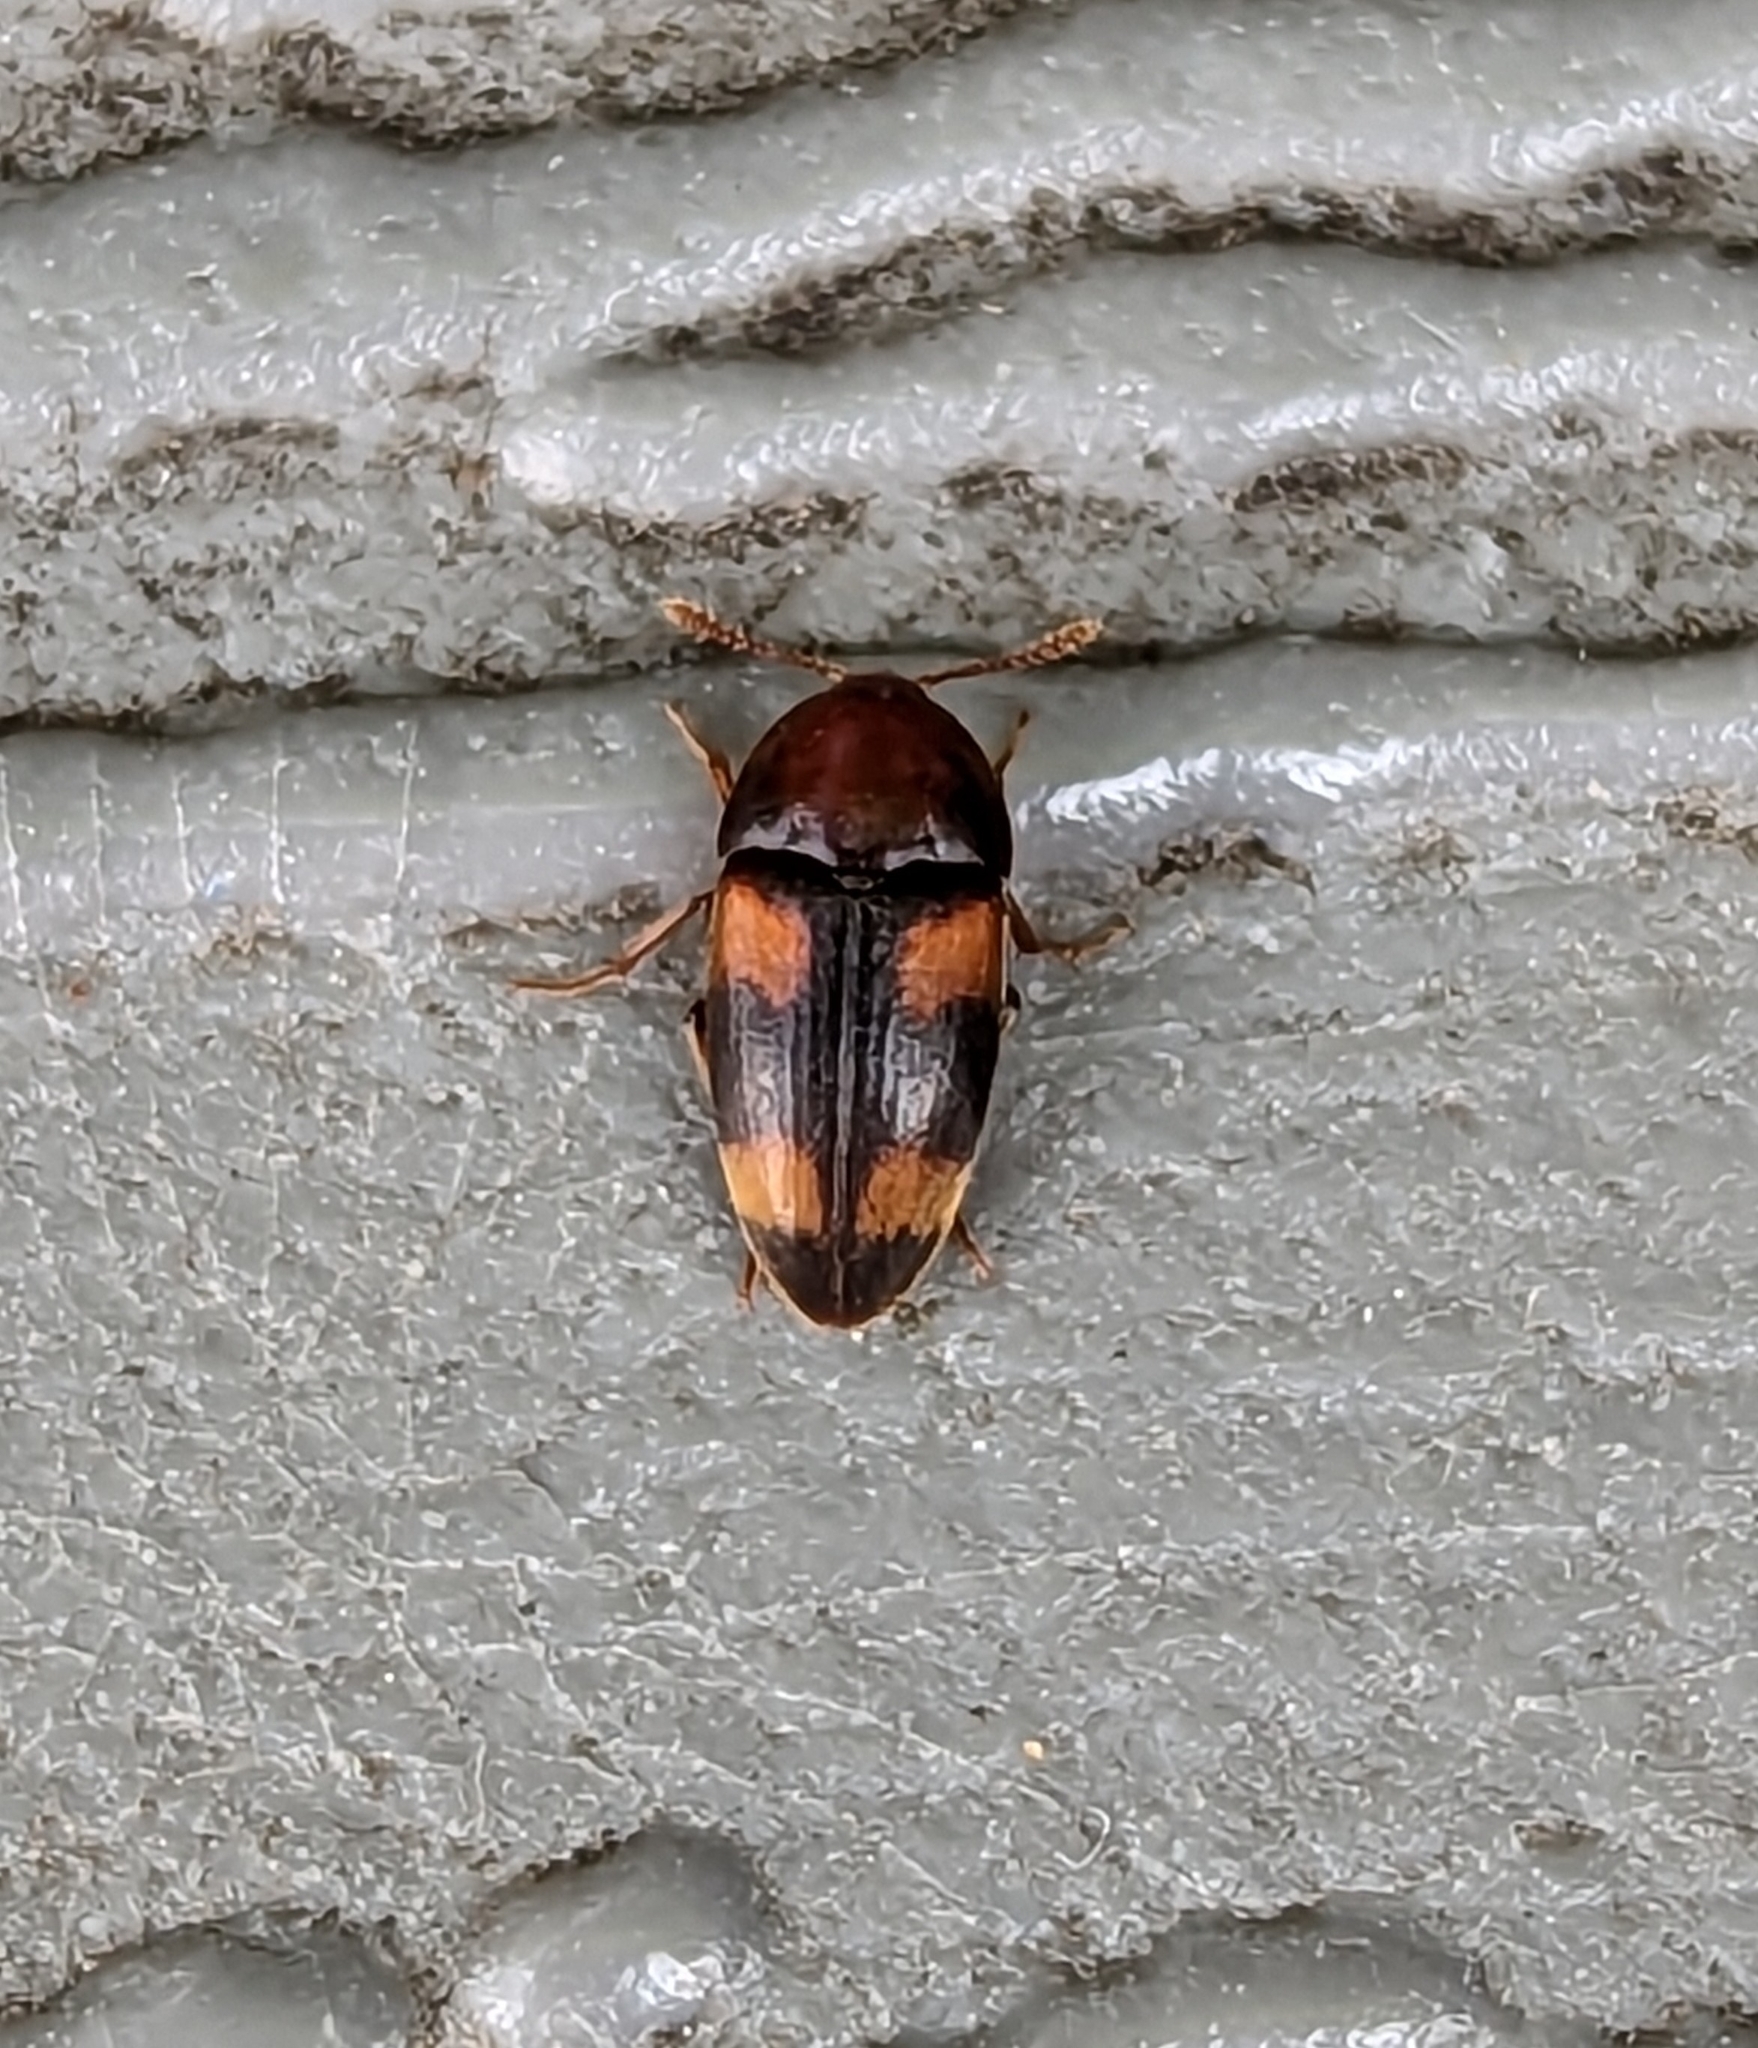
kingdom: Animalia
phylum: Arthropoda
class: Insecta
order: Coleoptera
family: Tetratomidae
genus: Holostrophus
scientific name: Holostrophus bifasciatus
